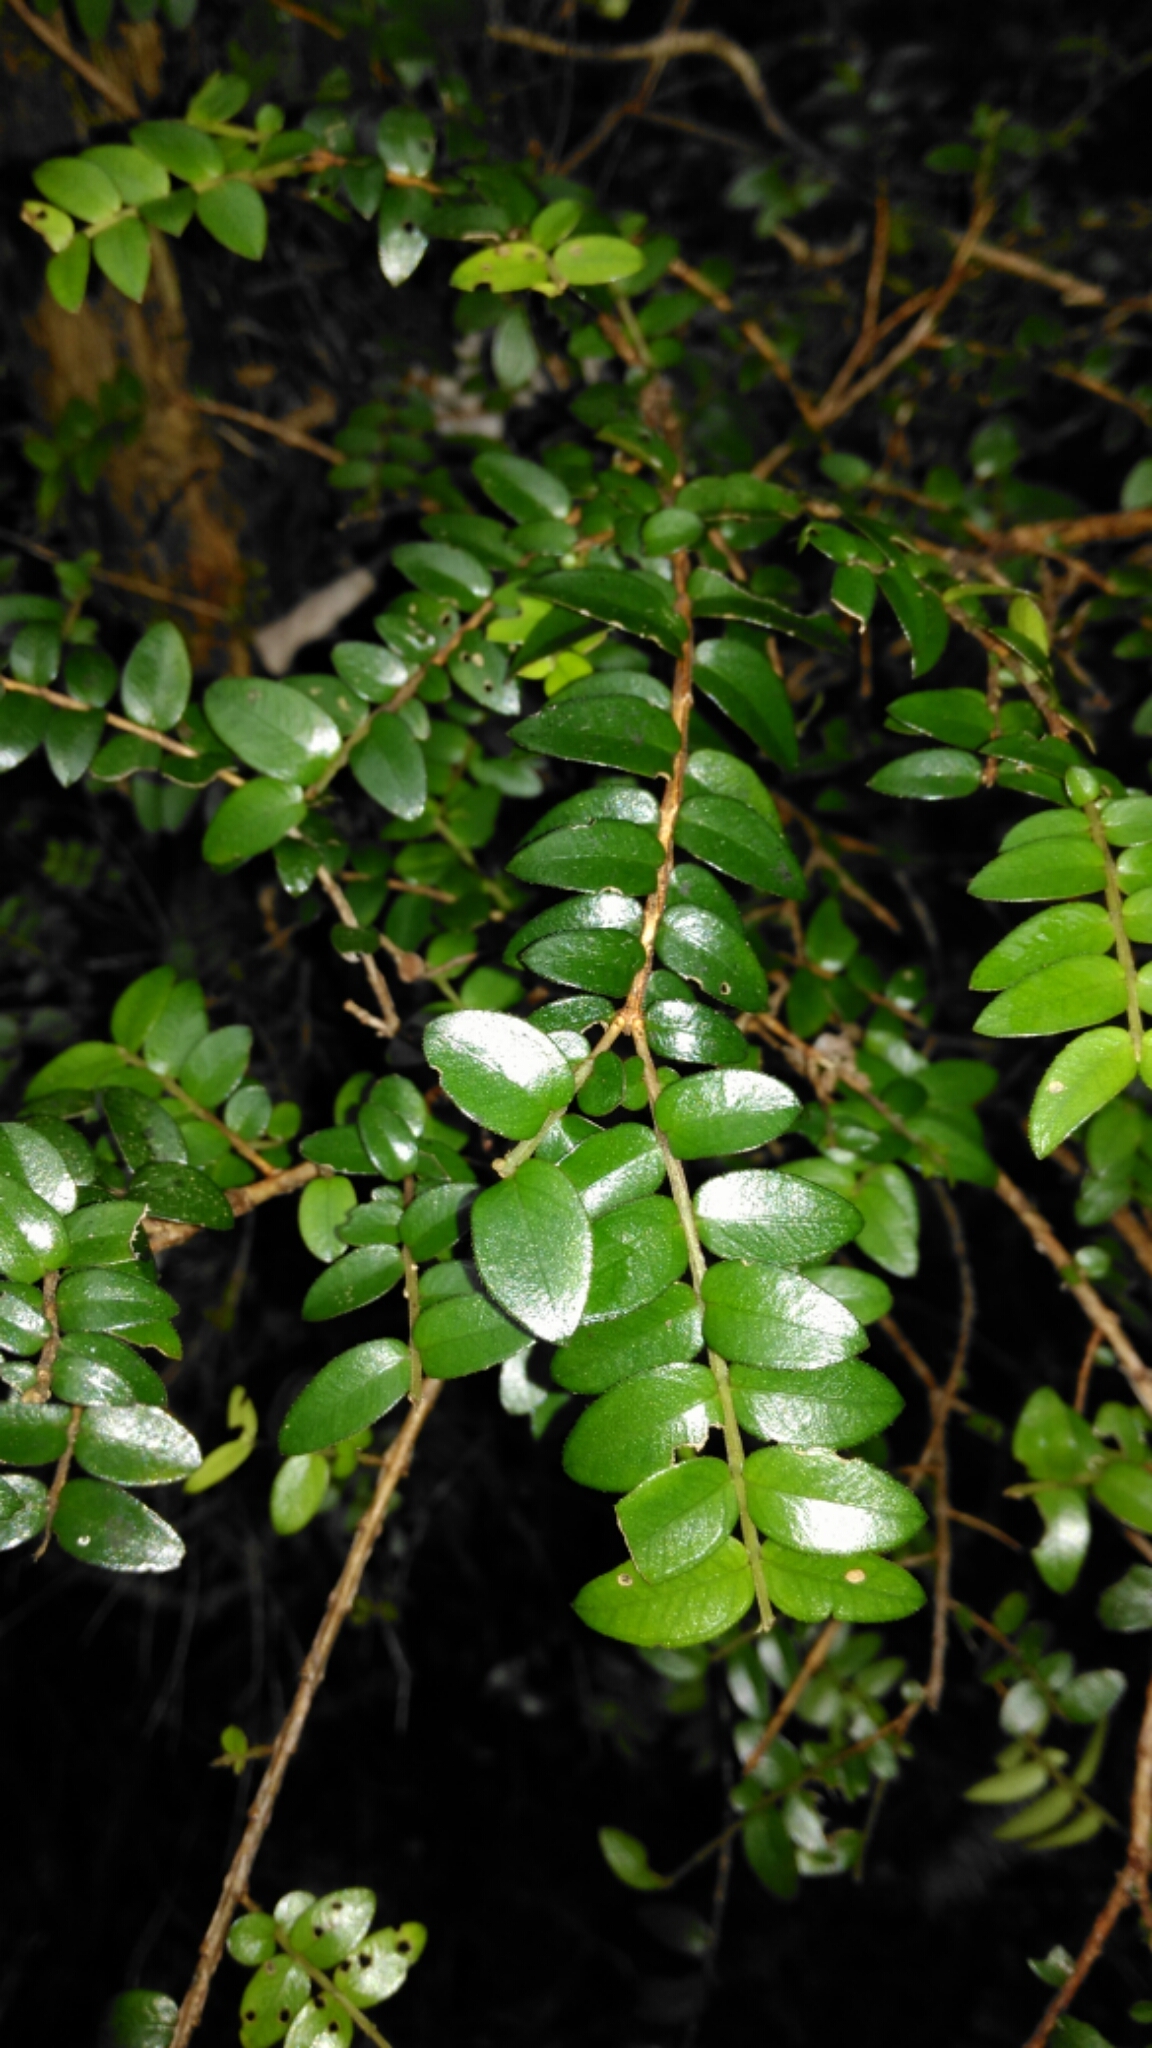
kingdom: Plantae
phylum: Tracheophyta
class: Magnoliopsida
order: Myrtales
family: Myrtaceae
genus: Metrosideros
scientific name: Metrosideros diffusa
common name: Small ratavine
